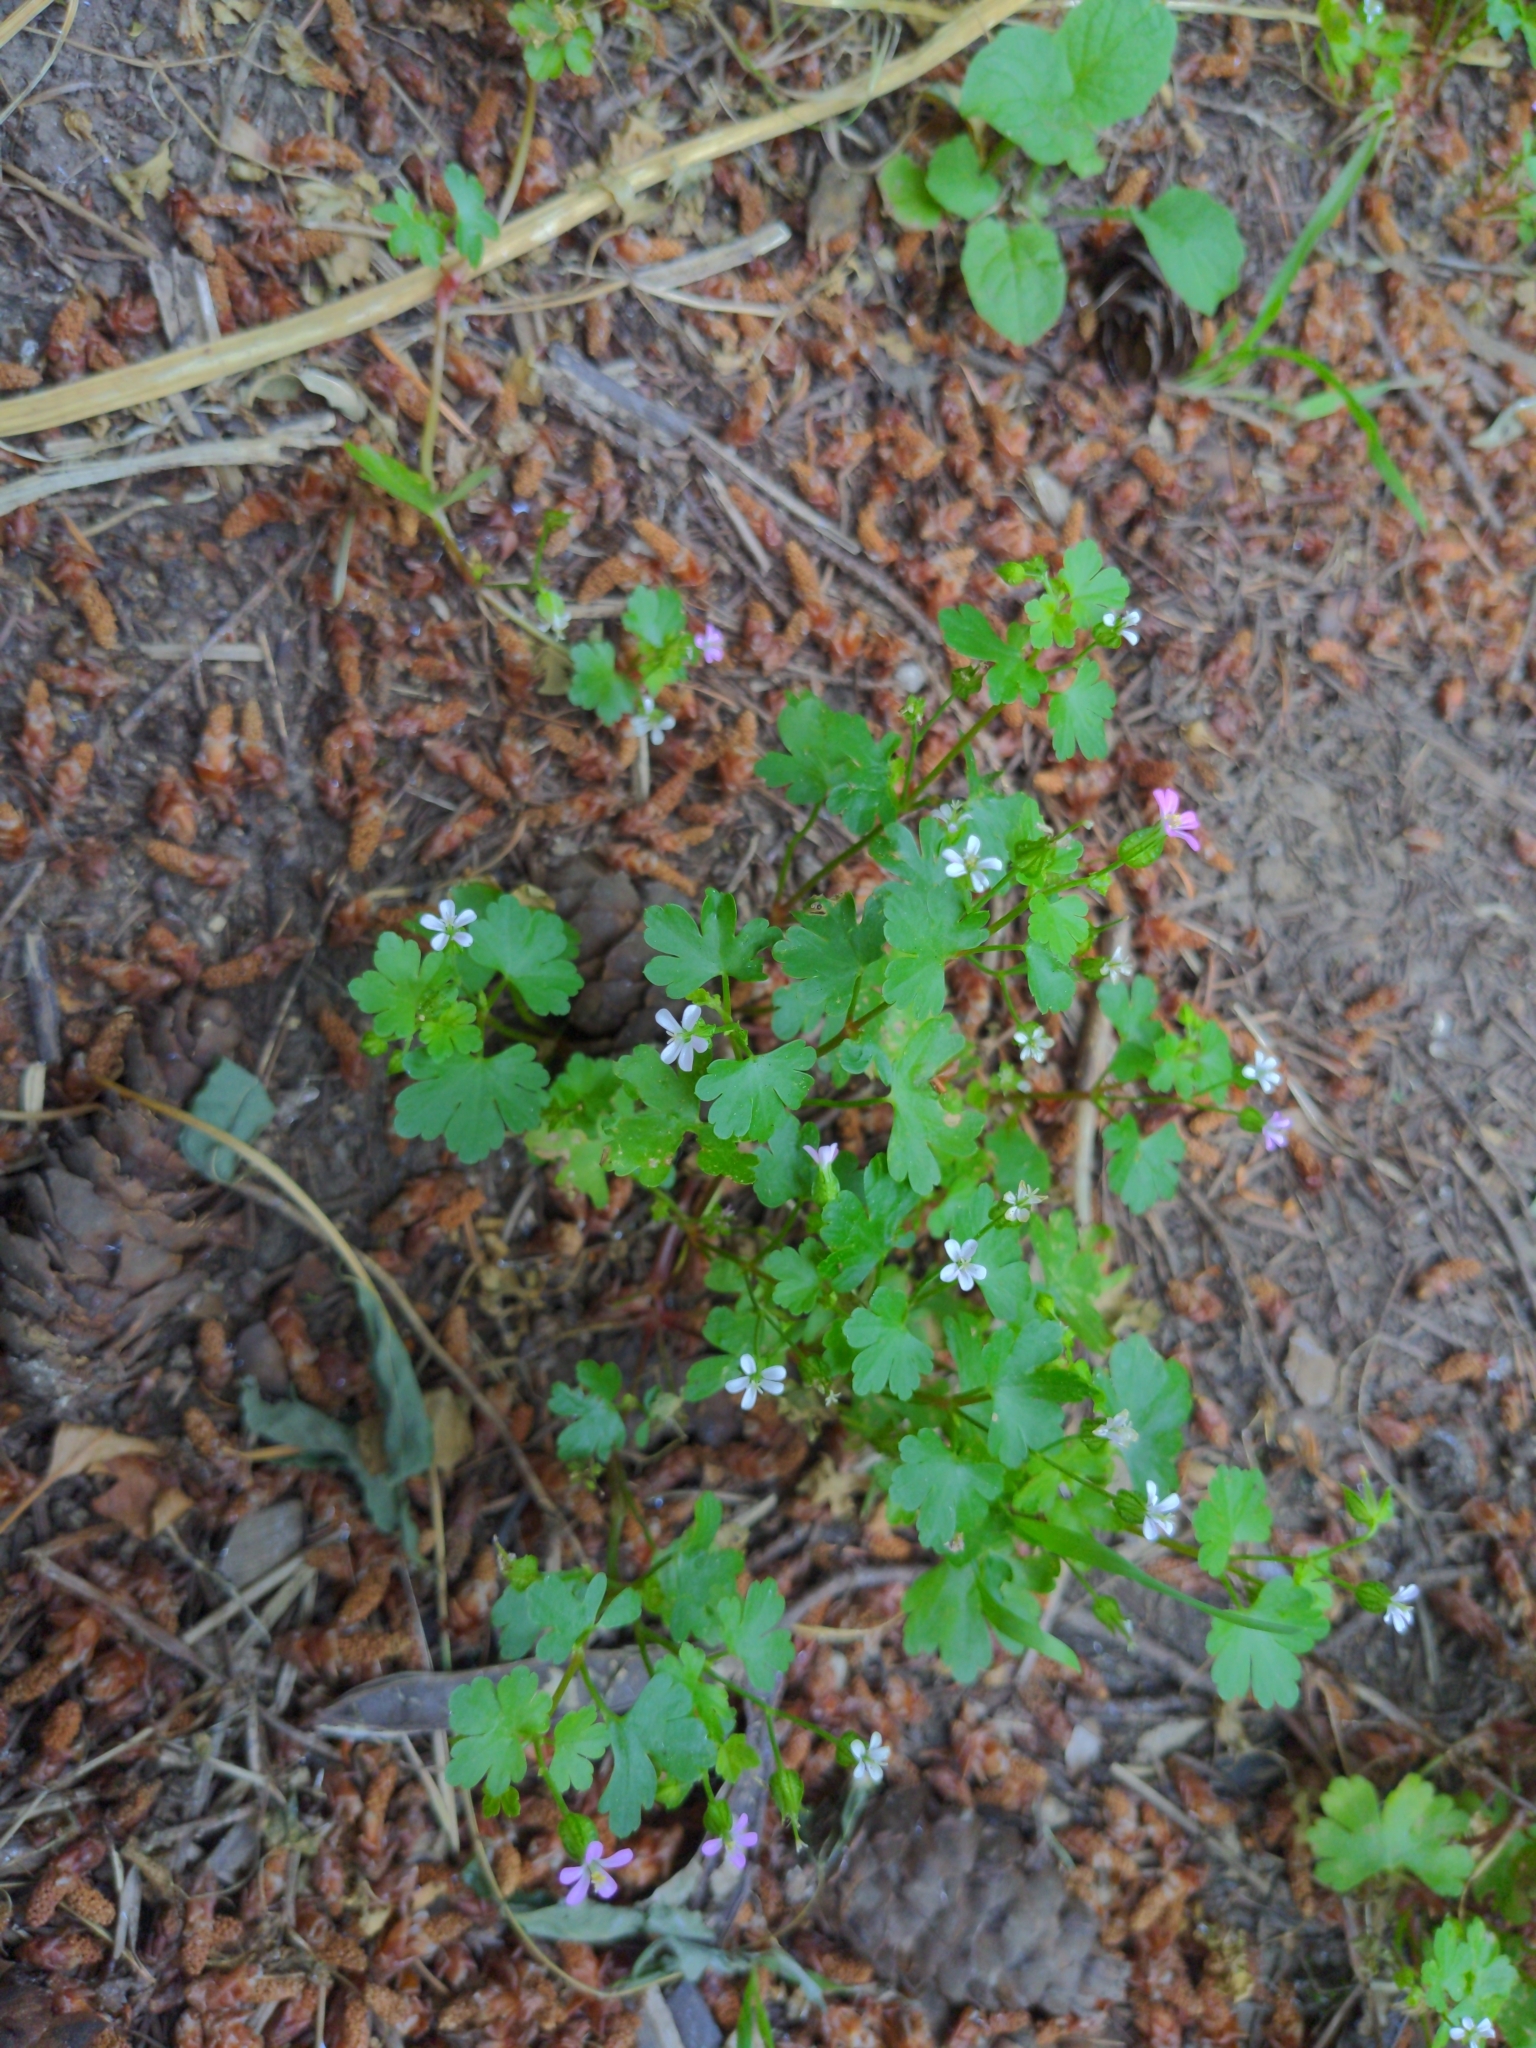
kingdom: Plantae
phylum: Tracheophyta
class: Magnoliopsida
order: Geraniales
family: Geraniaceae
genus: Geranium
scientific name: Geranium lucidum
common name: Shining crane's-bill
